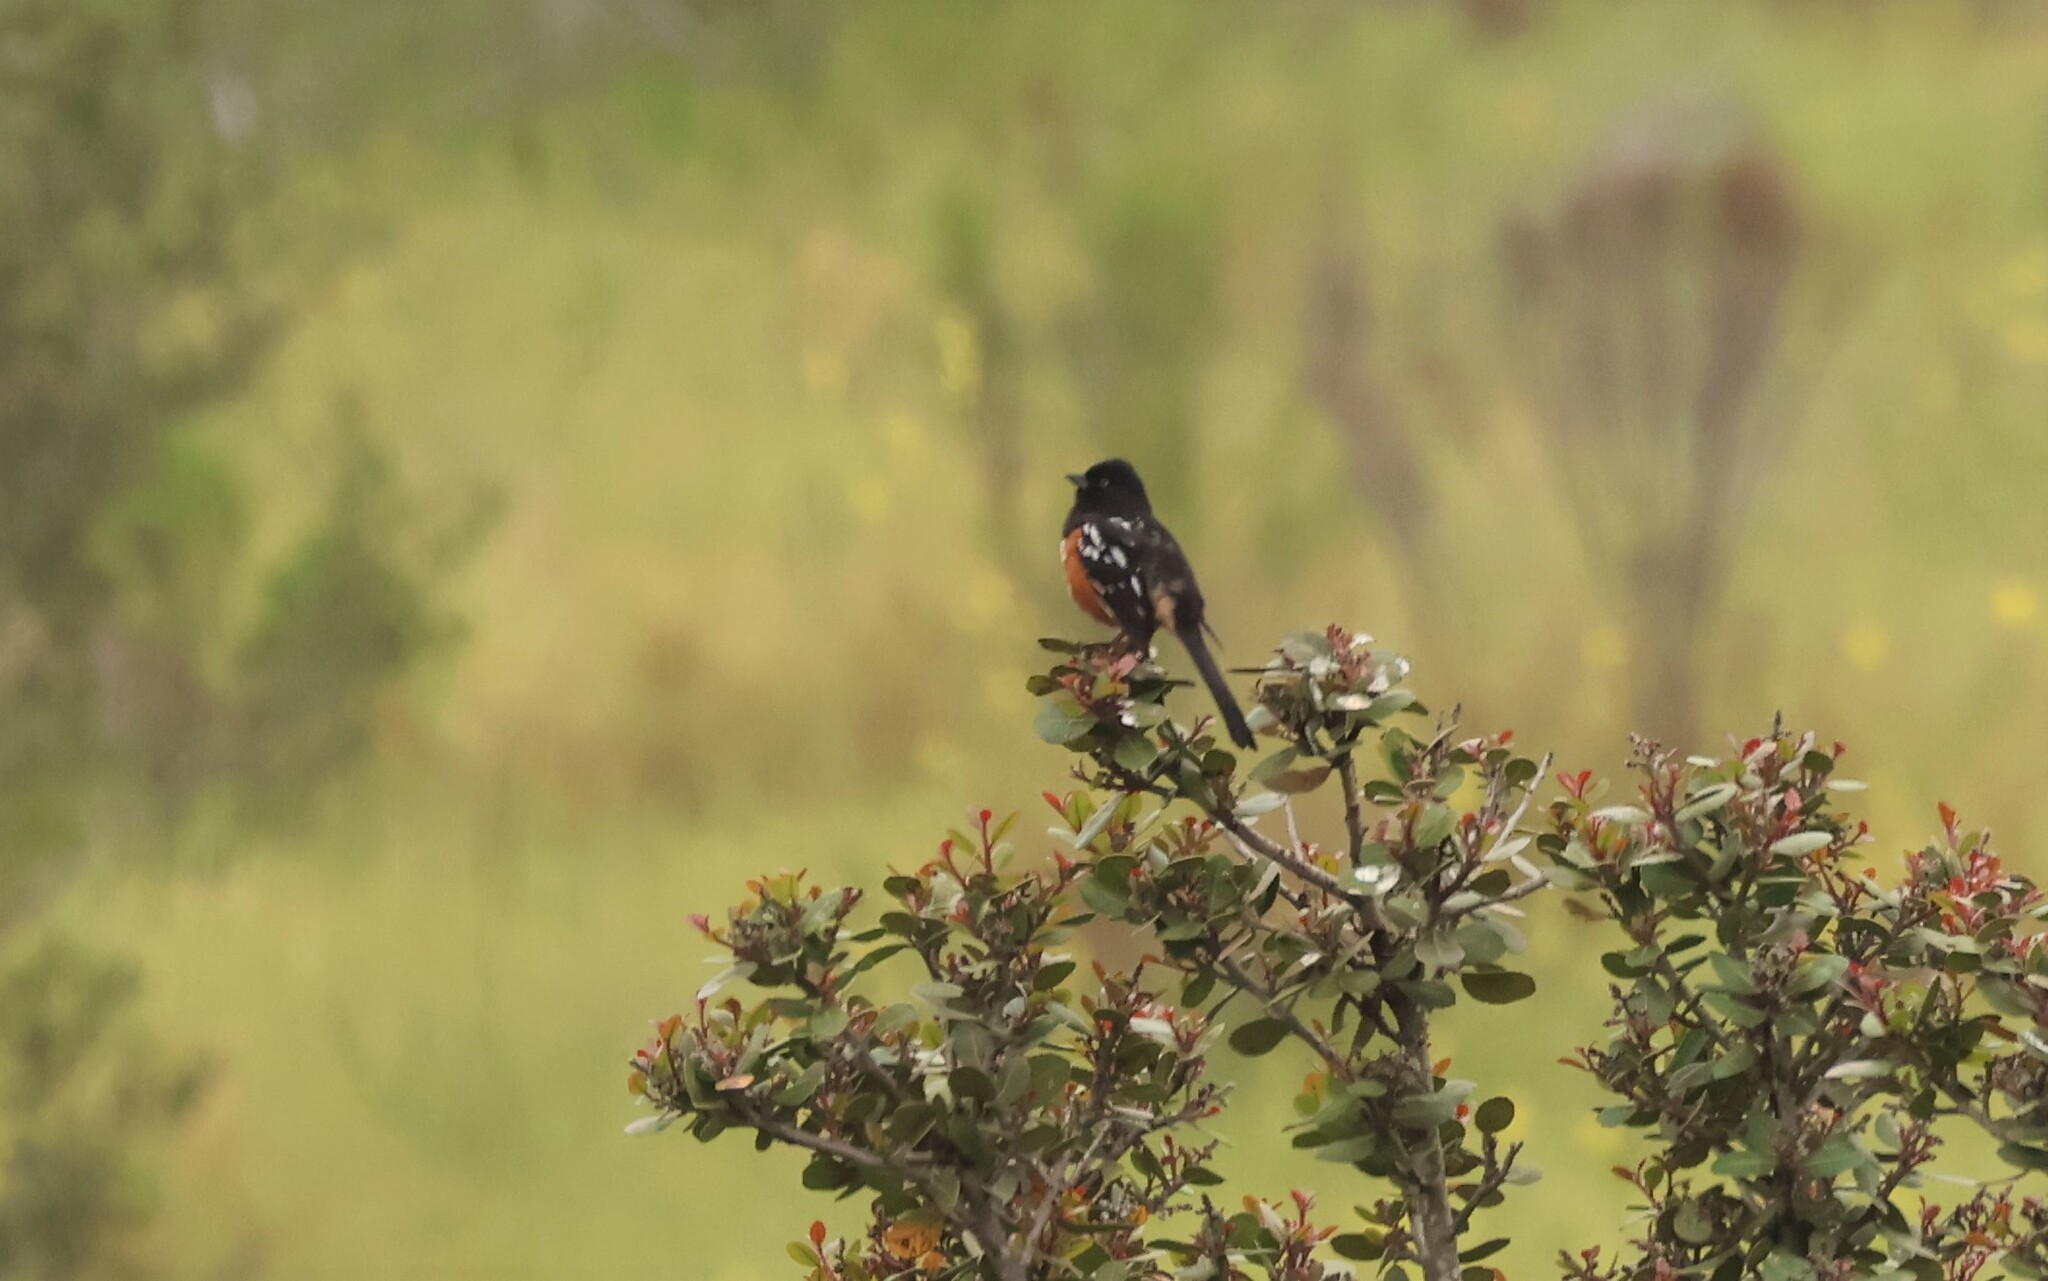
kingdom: Animalia
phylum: Chordata
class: Aves
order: Passeriformes
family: Passerellidae
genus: Pipilo
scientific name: Pipilo maculatus
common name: Spotted towhee
